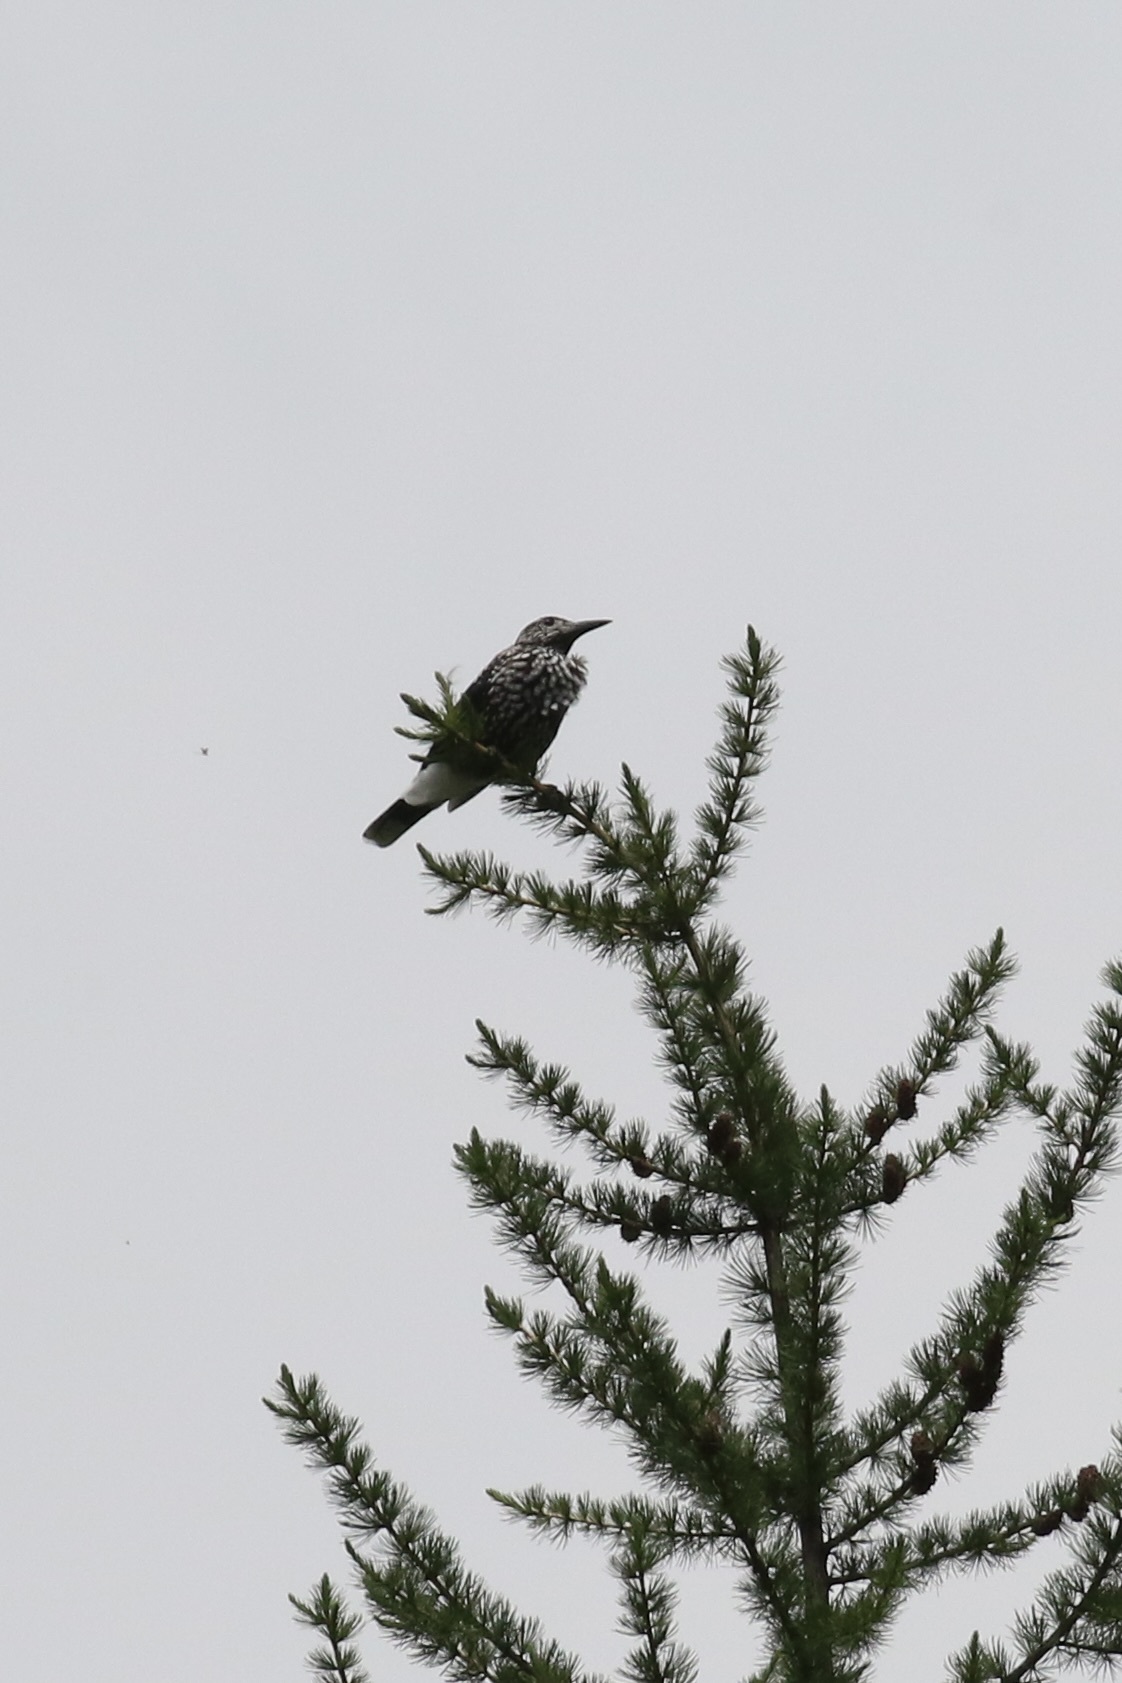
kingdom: Animalia
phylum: Chordata
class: Aves
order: Passeriformes
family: Corvidae
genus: Nucifraga
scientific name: Nucifraga caryocatactes
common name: Spotted nutcracker
